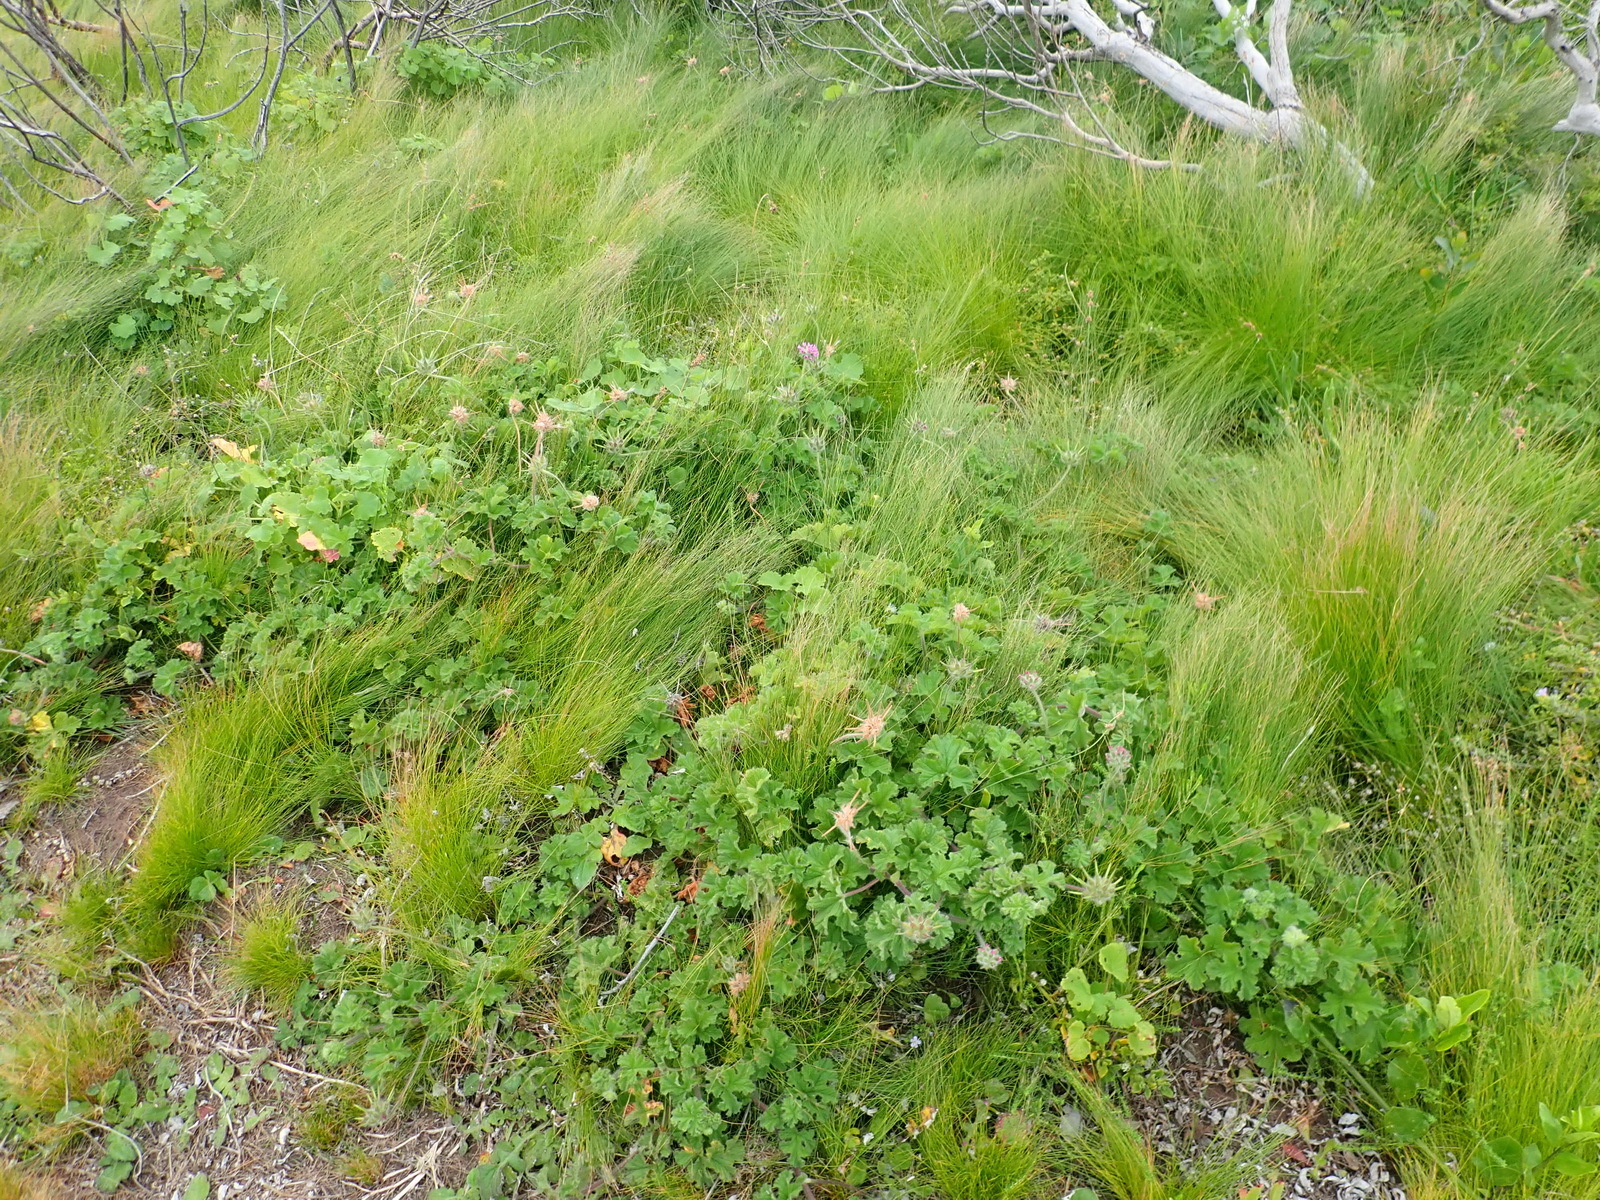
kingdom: Plantae
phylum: Tracheophyta
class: Magnoliopsida
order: Geraniales
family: Geraniaceae
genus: Pelargonium
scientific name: Pelargonium capitatum
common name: Rose scented geranium
